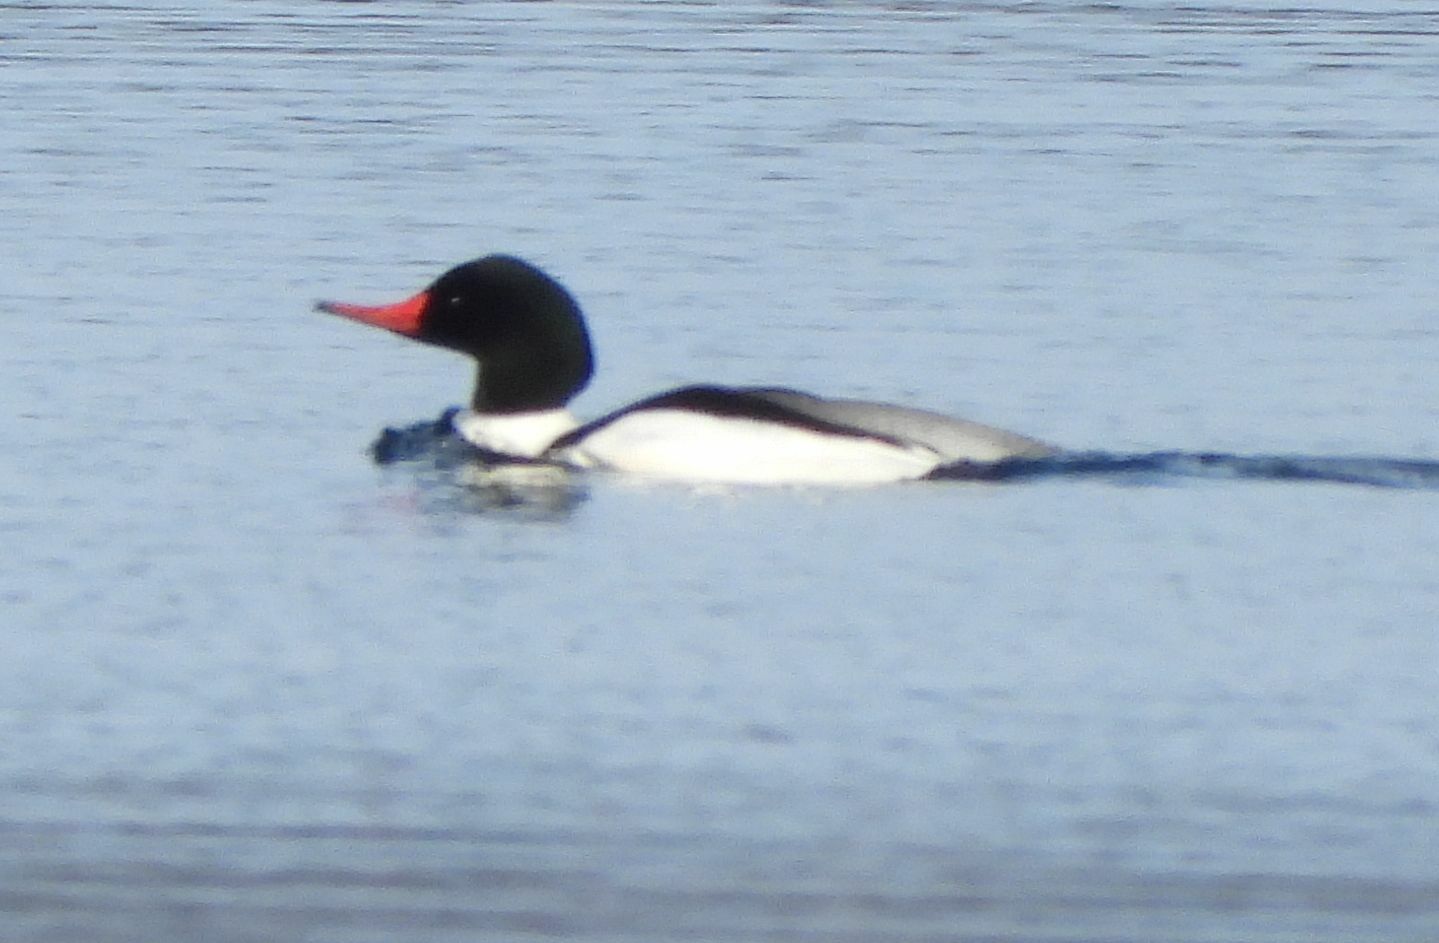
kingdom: Animalia
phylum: Chordata
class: Aves
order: Anseriformes
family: Anatidae
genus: Mergus
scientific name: Mergus merganser
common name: Common merganser
